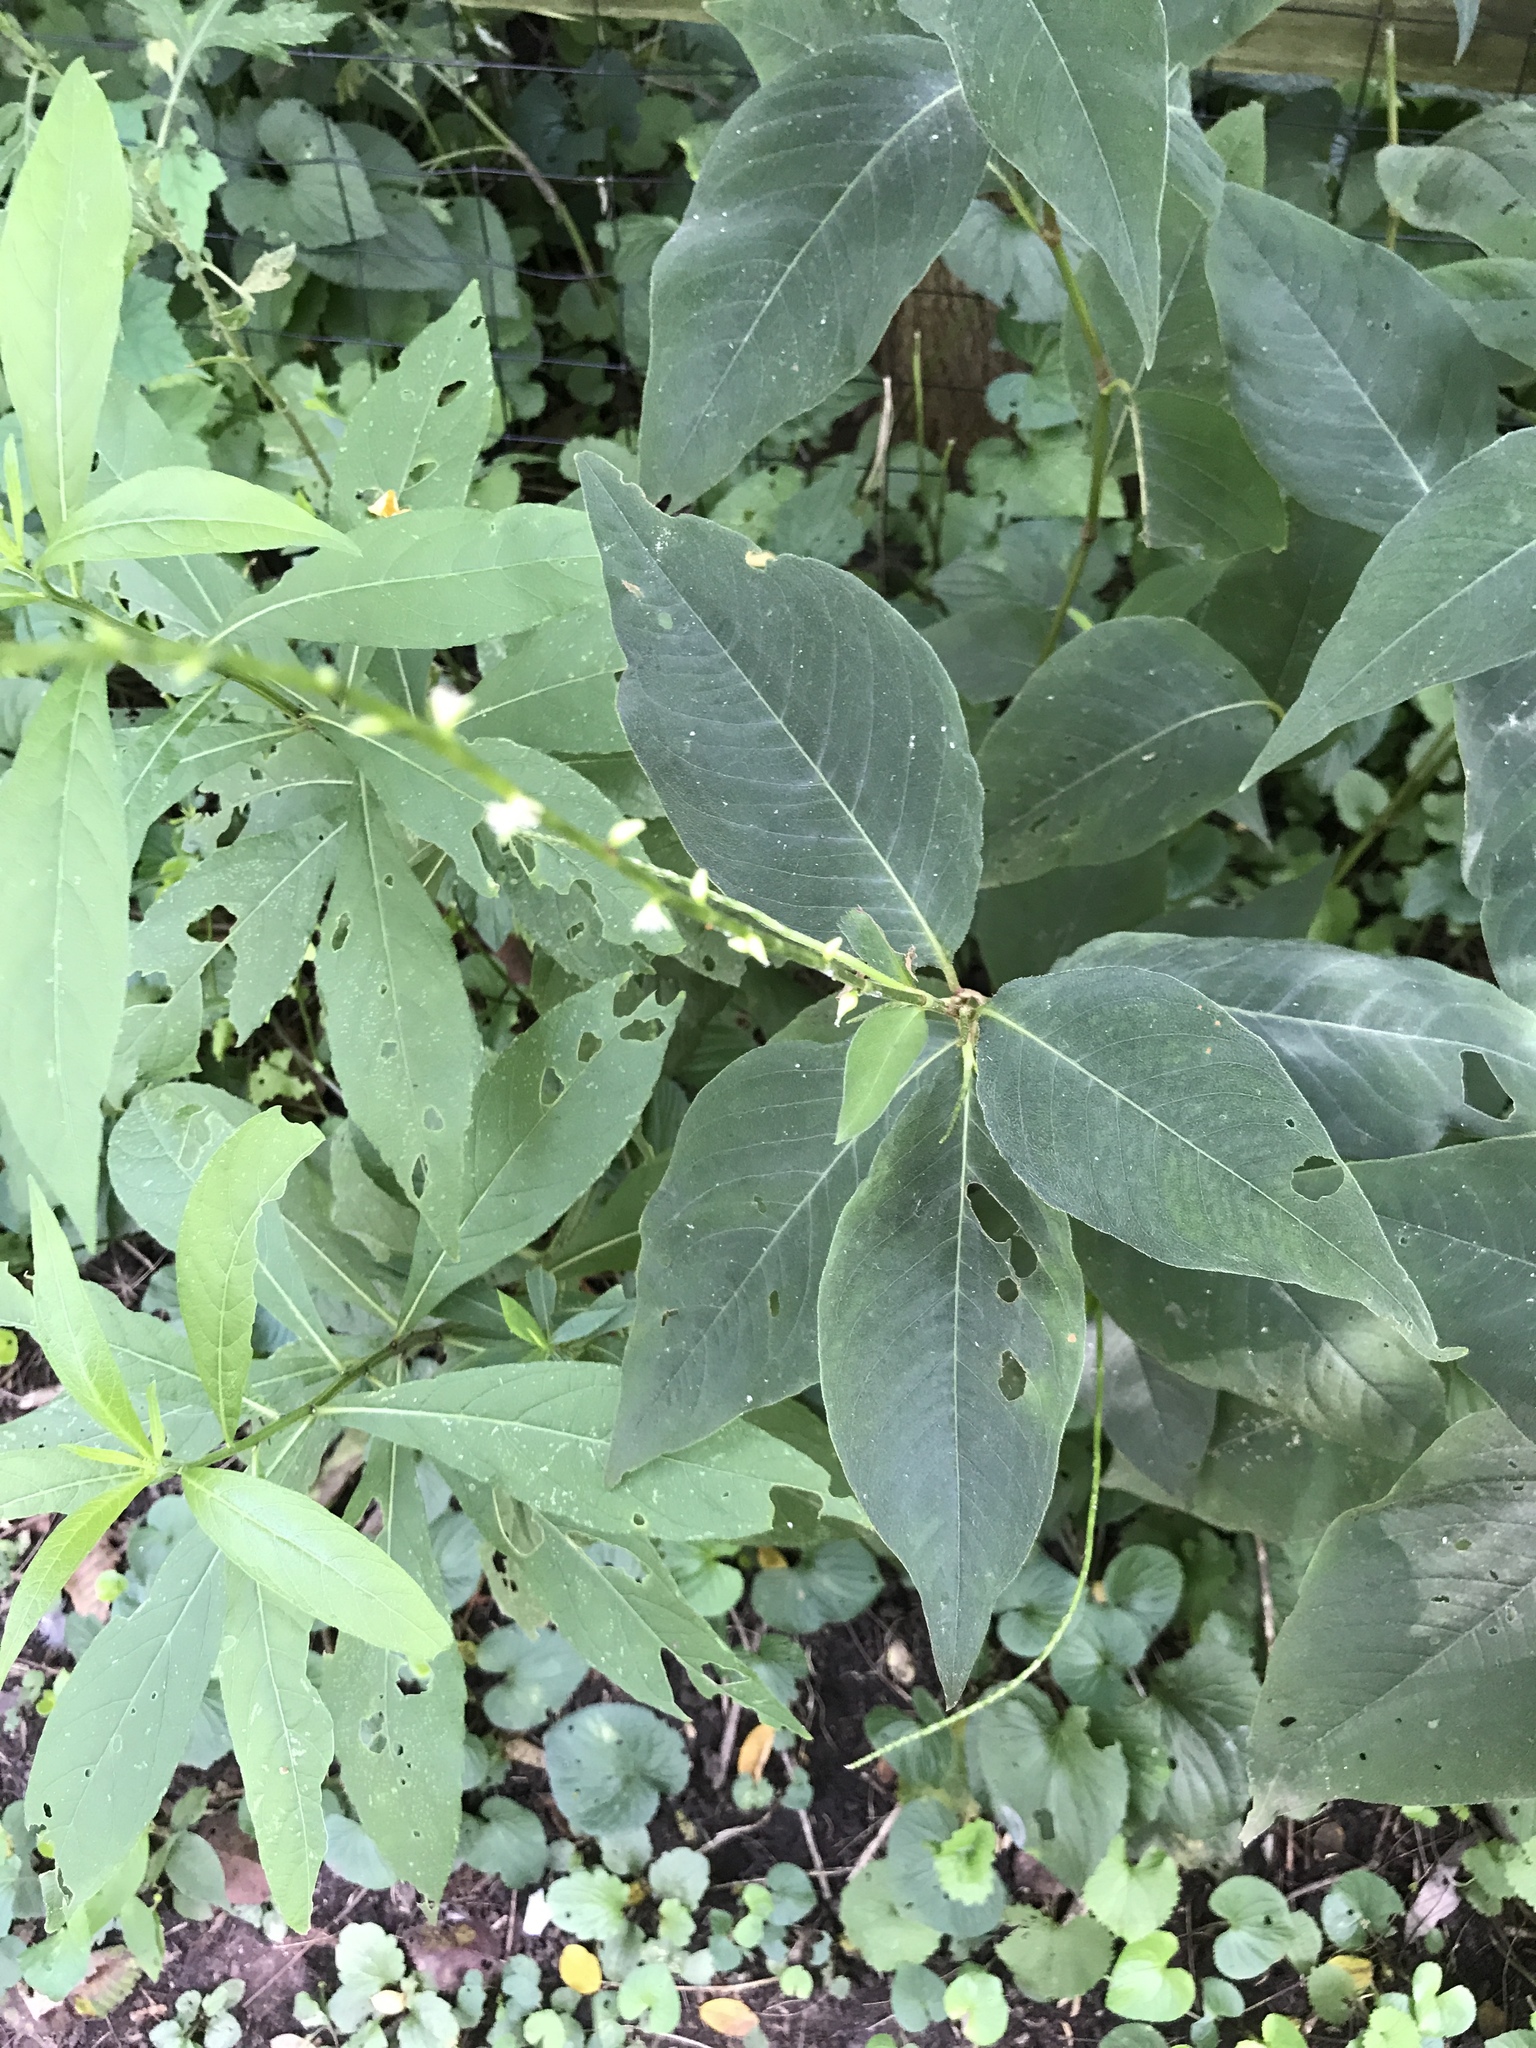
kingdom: Plantae
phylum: Tracheophyta
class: Magnoliopsida
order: Caryophyllales
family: Polygonaceae
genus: Persicaria
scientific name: Persicaria virginiana
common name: Jumpseed
